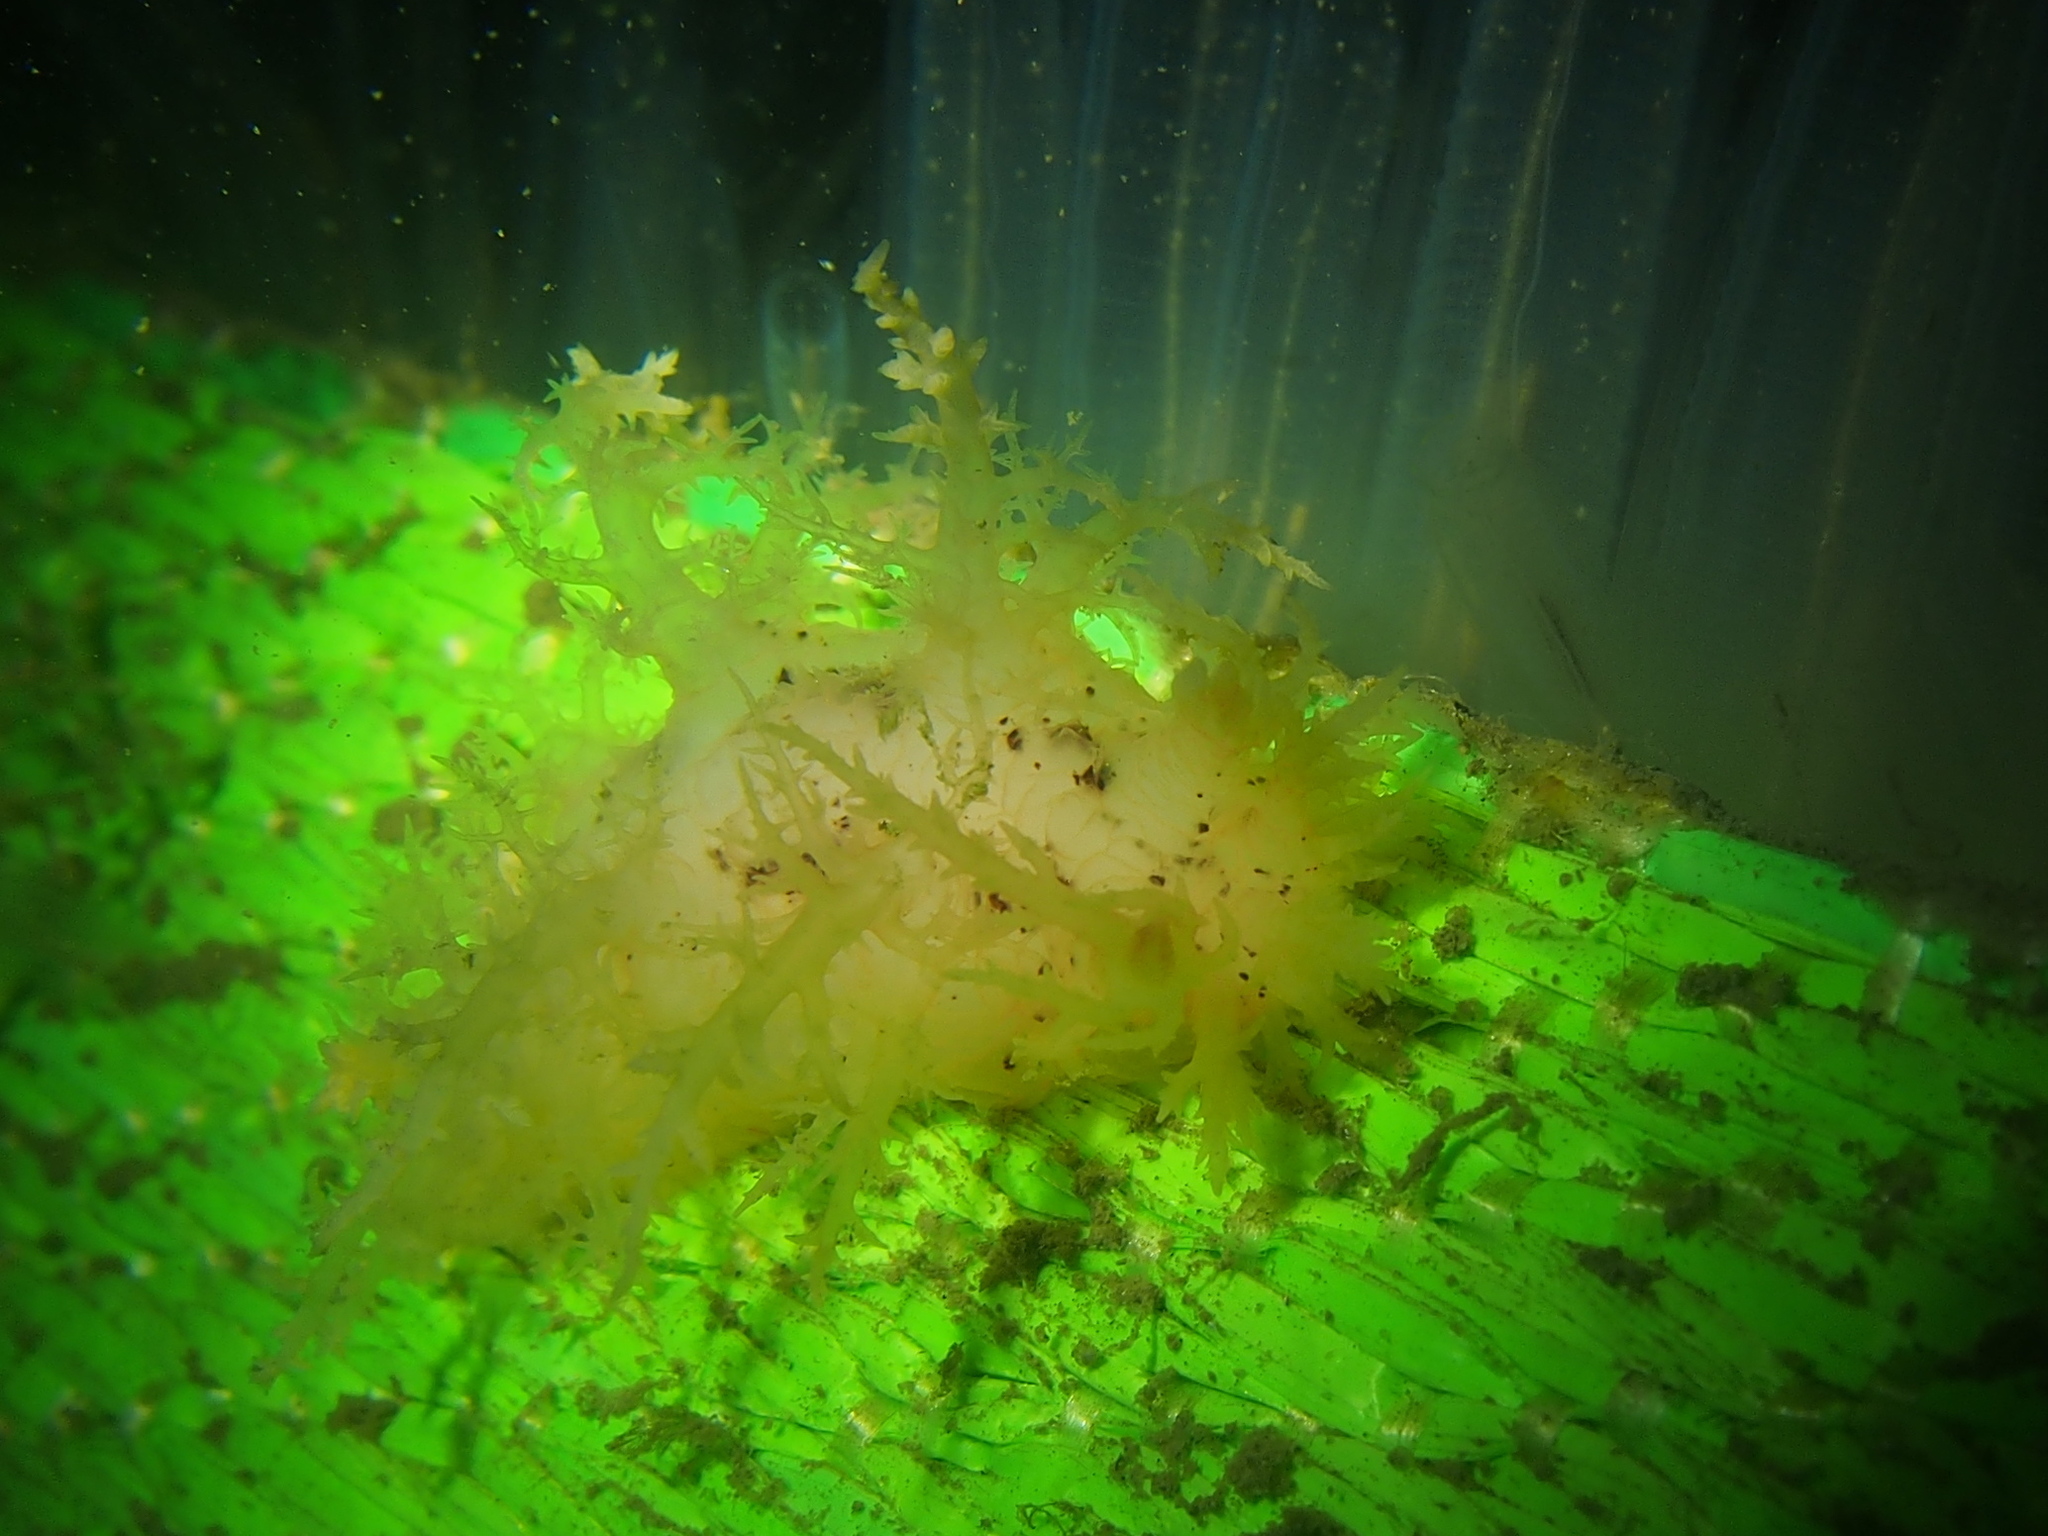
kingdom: Animalia
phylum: Mollusca
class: Gastropoda
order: Nudibranchia
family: Dendronotidae
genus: Dendronotus
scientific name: Dendronotus lacteus
